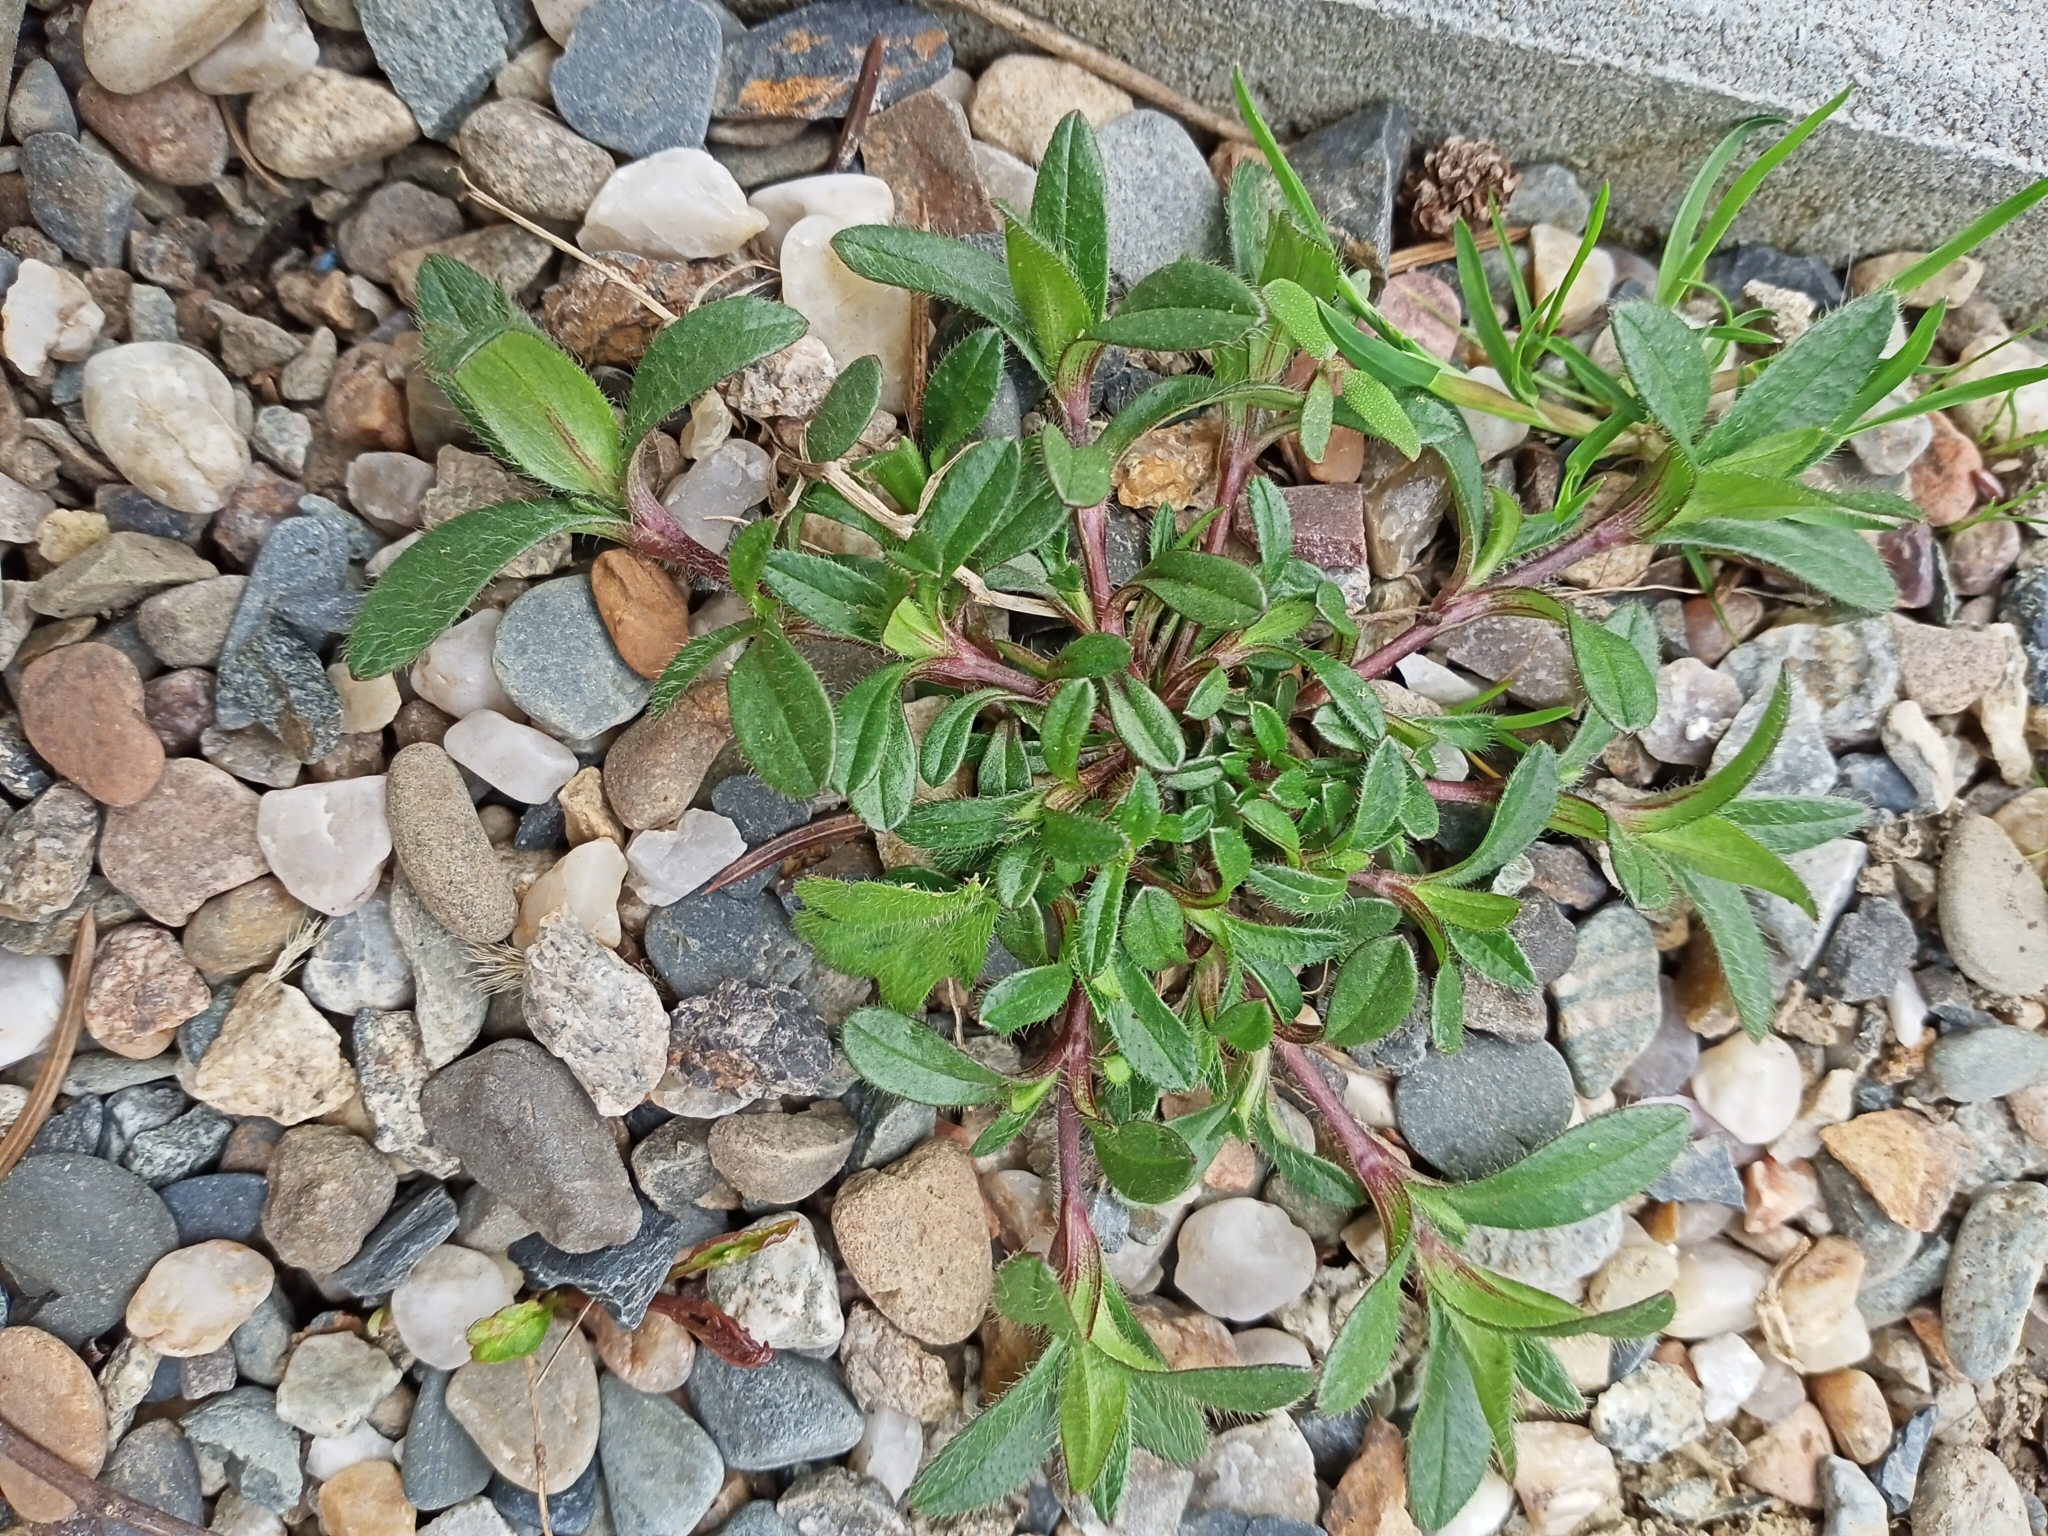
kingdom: Plantae
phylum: Tracheophyta
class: Magnoliopsida
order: Caryophyllales
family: Caryophyllaceae
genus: Cerastium
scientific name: Cerastium holosteoides
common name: Big chickweed
